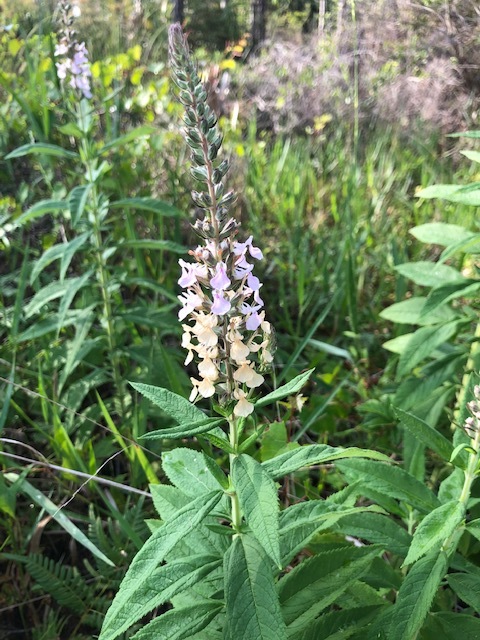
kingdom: Plantae
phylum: Tracheophyta
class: Magnoliopsida
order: Lamiales
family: Lamiaceae
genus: Teucrium
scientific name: Teucrium canadense
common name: American germander
